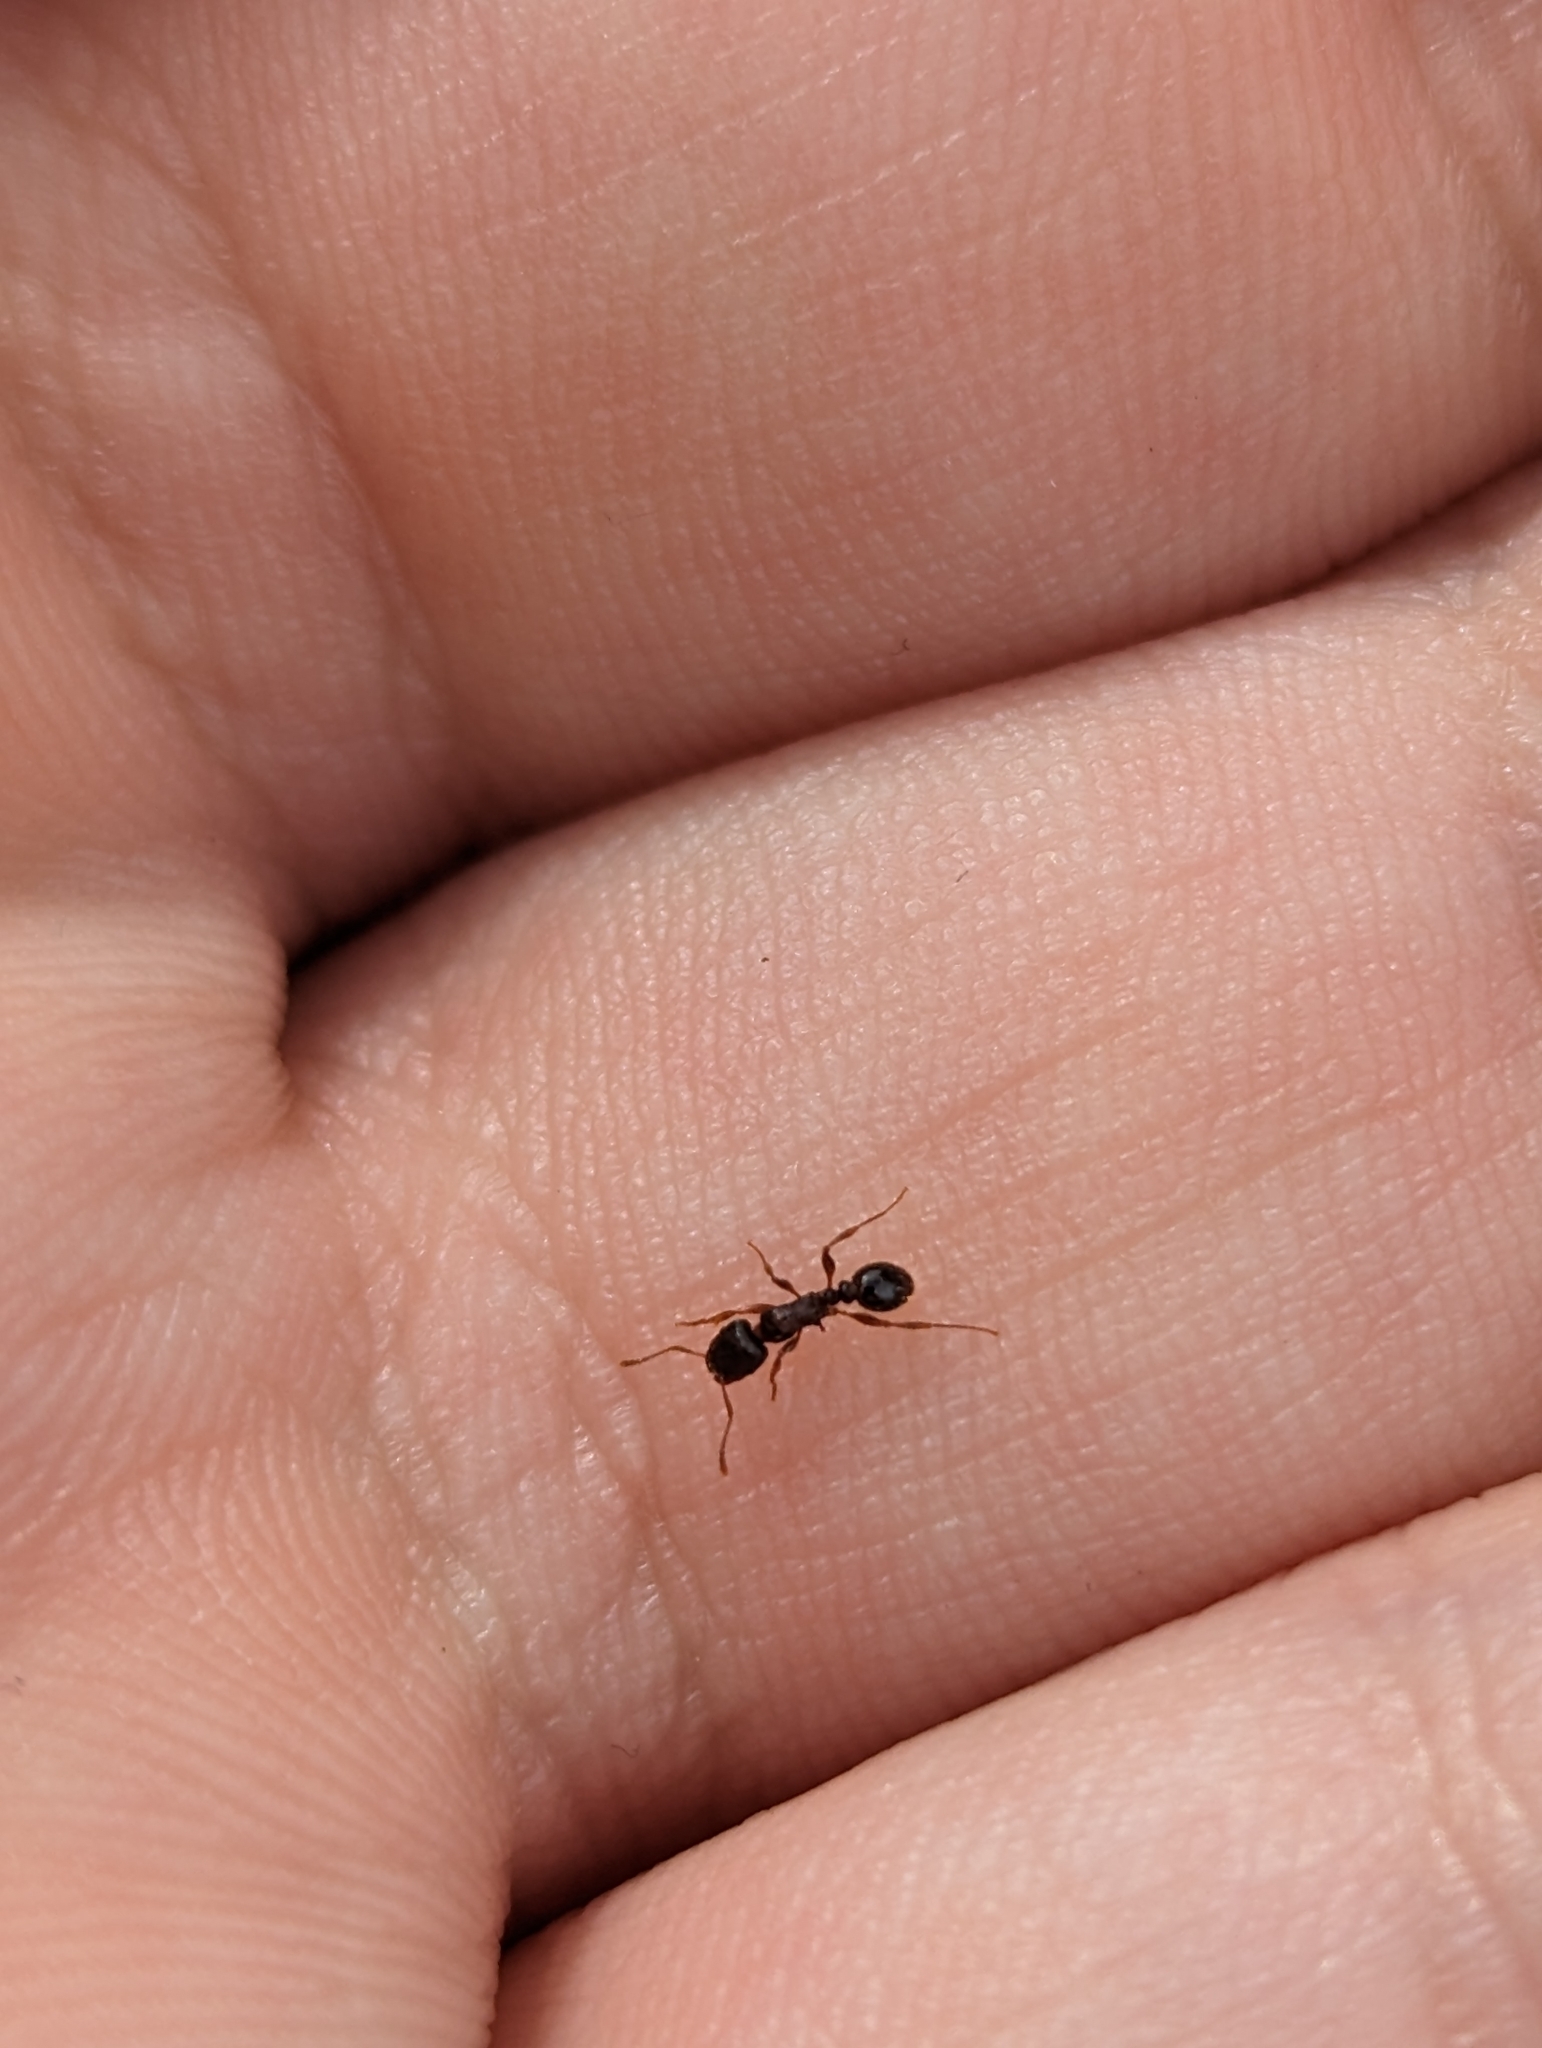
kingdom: Animalia
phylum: Arthropoda
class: Insecta
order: Hymenoptera
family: Formicidae
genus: Tetramorium
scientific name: Tetramorium immigrans
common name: Pavement ant
